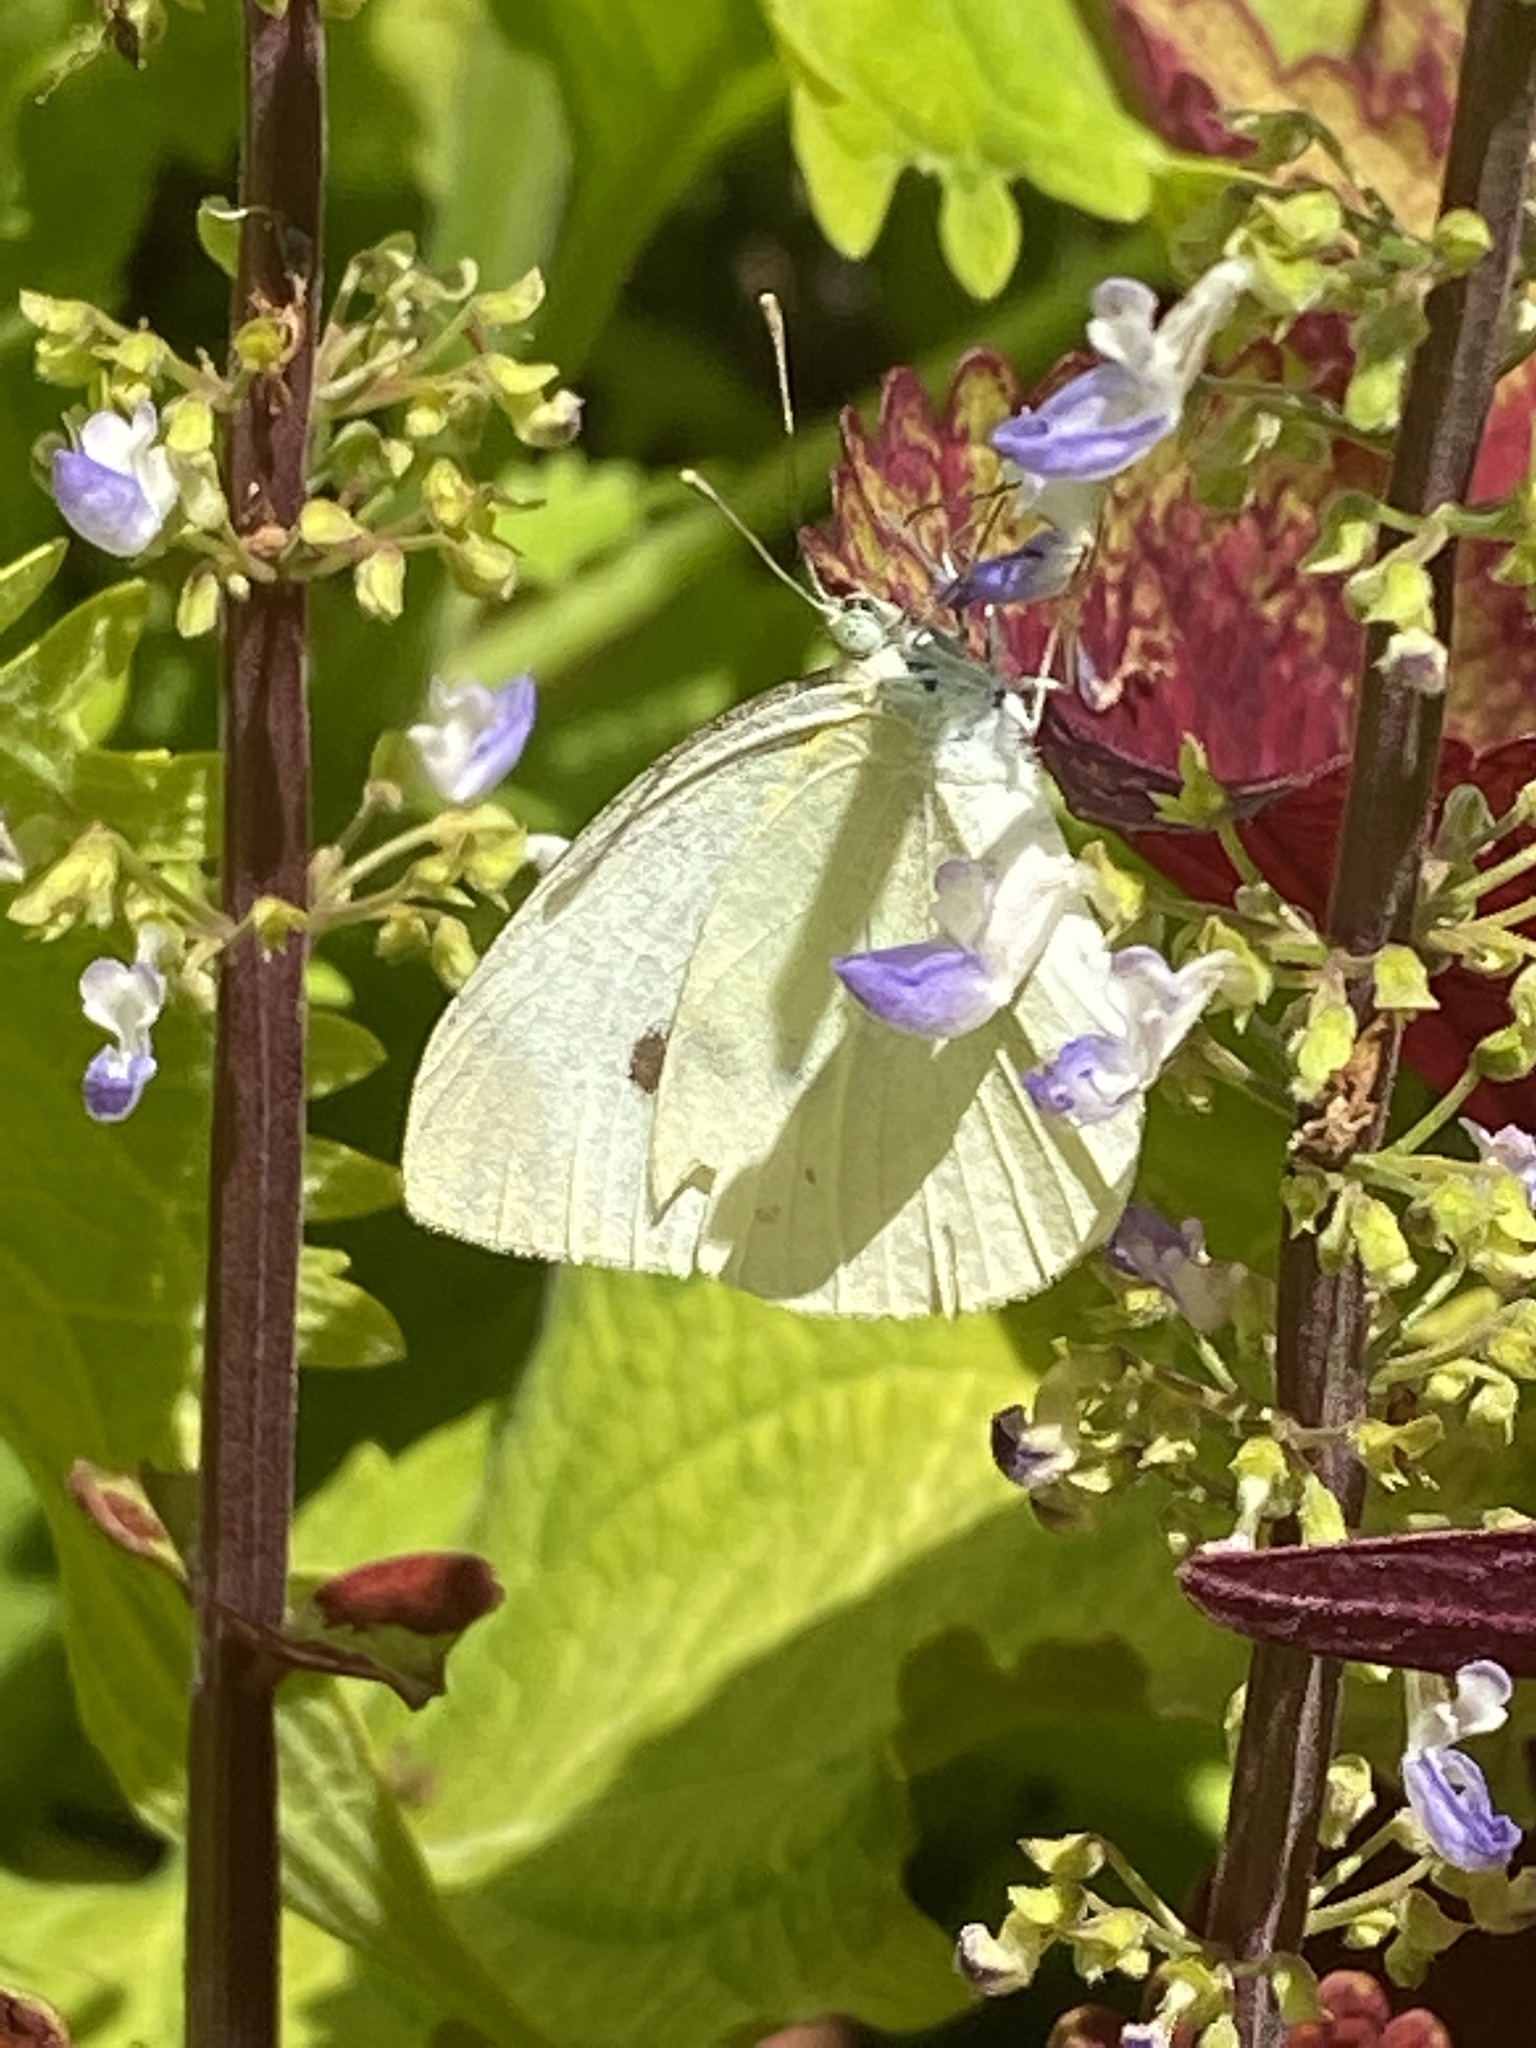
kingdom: Animalia
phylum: Arthropoda
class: Insecta
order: Lepidoptera
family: Pieridae
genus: Pieris
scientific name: Pieris rapae
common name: Small white
